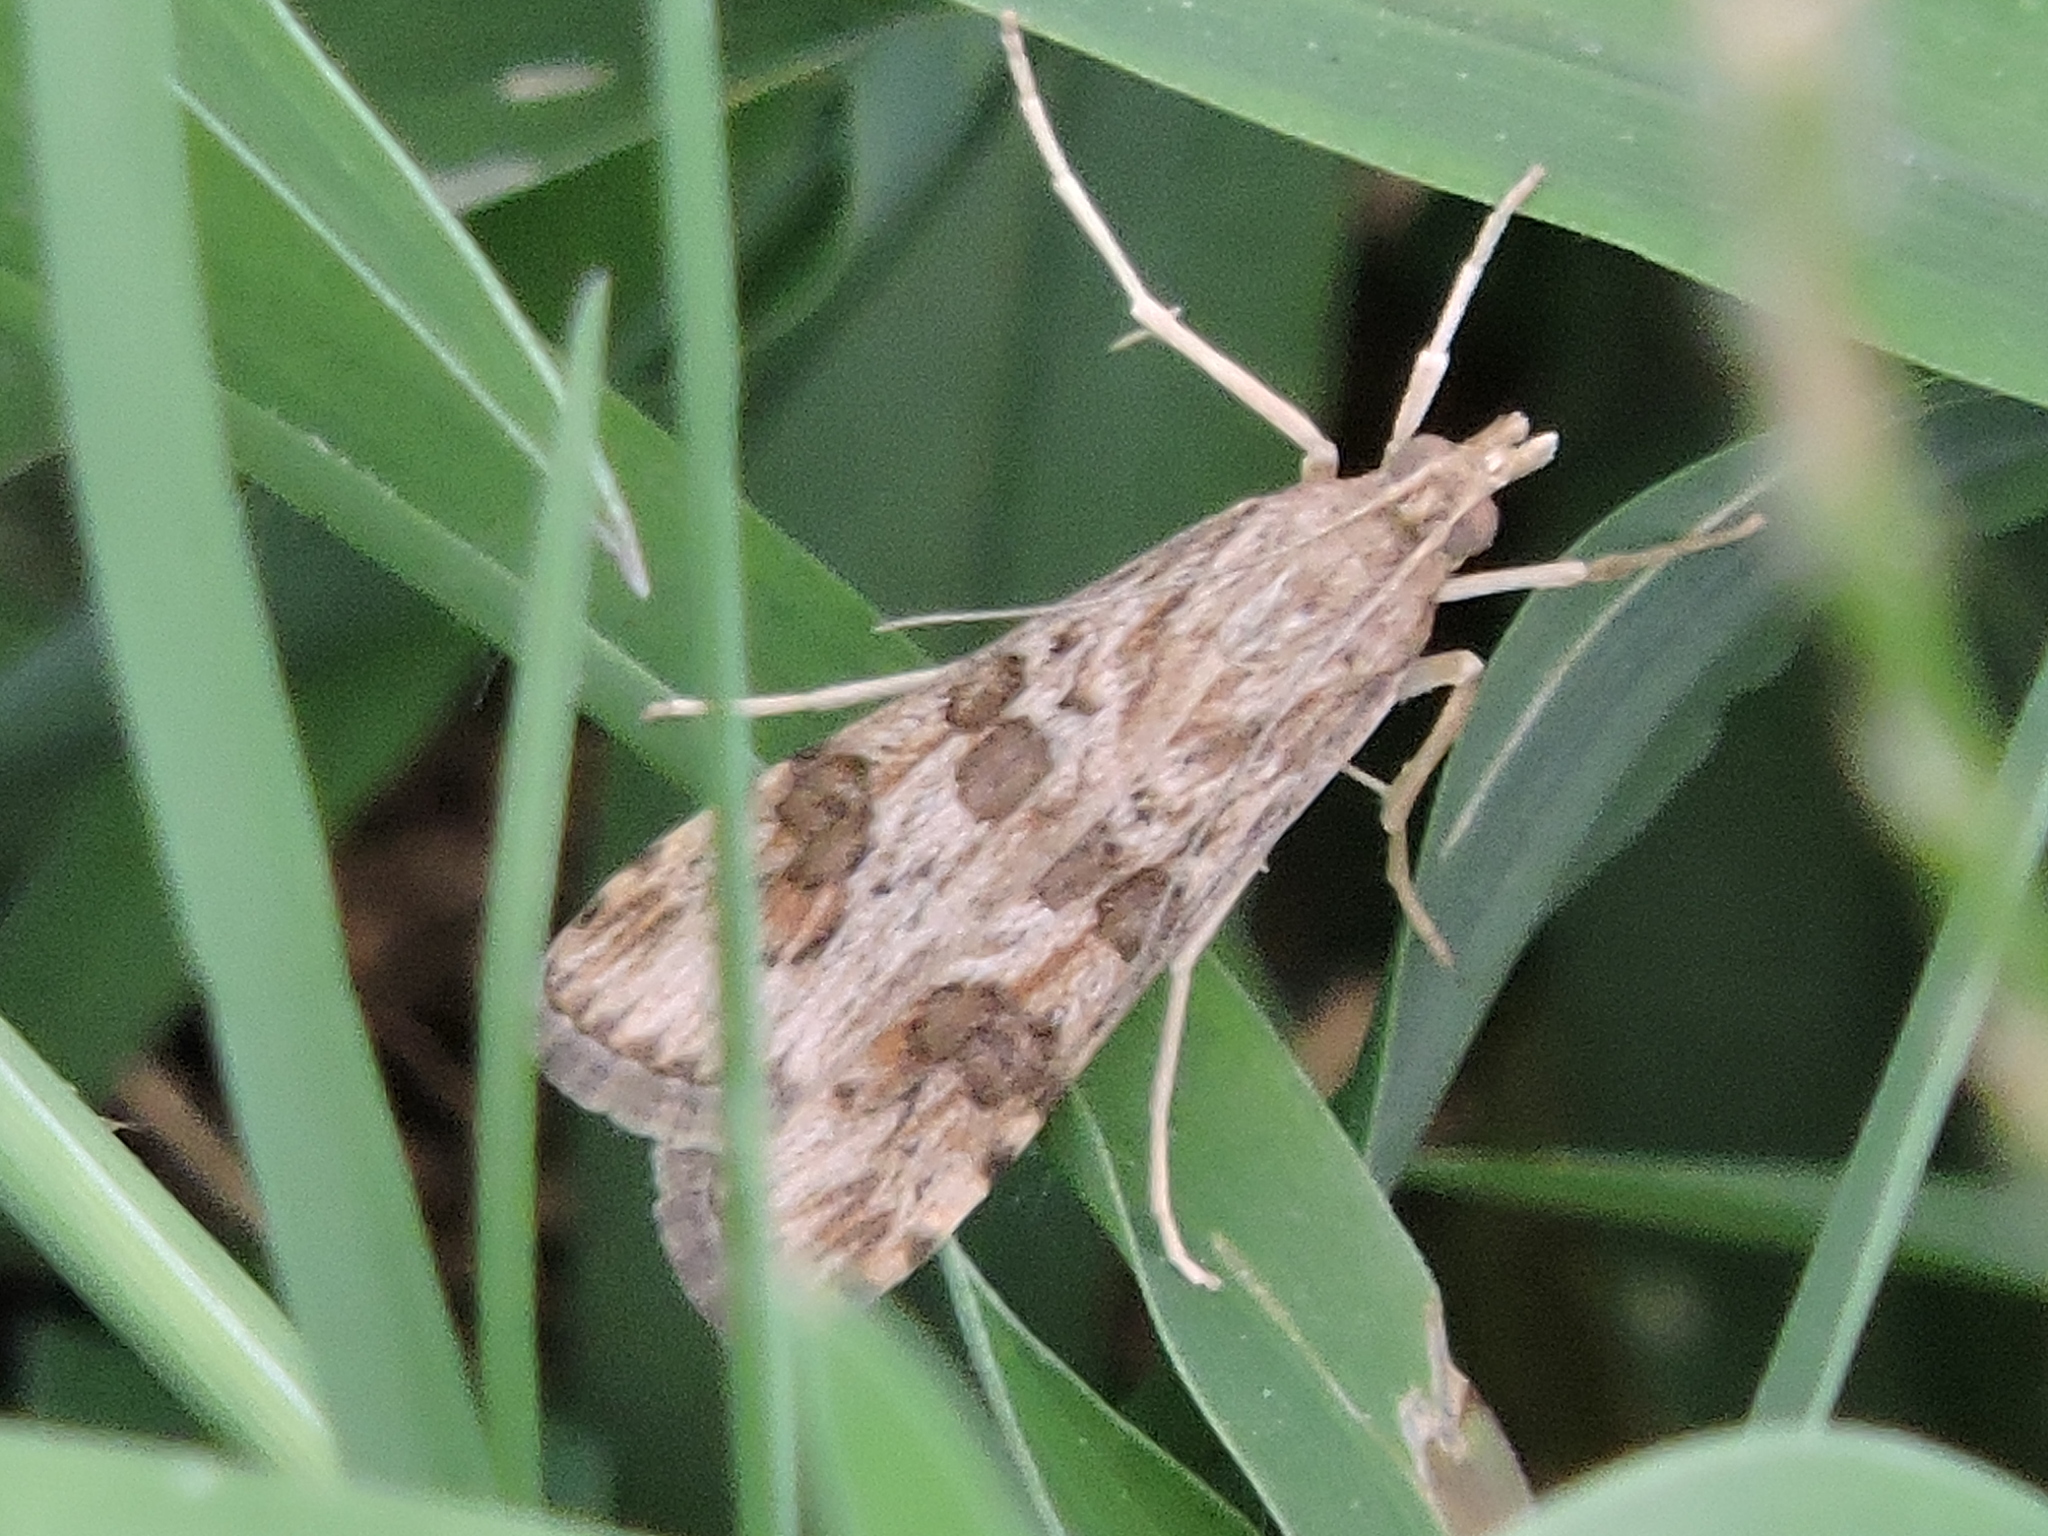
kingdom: Animalia
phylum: Arthropoda
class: Insecta
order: Lepidoptera
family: Crambidae
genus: Nomophila
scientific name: Nomophila nearctica
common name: American rush veneer
